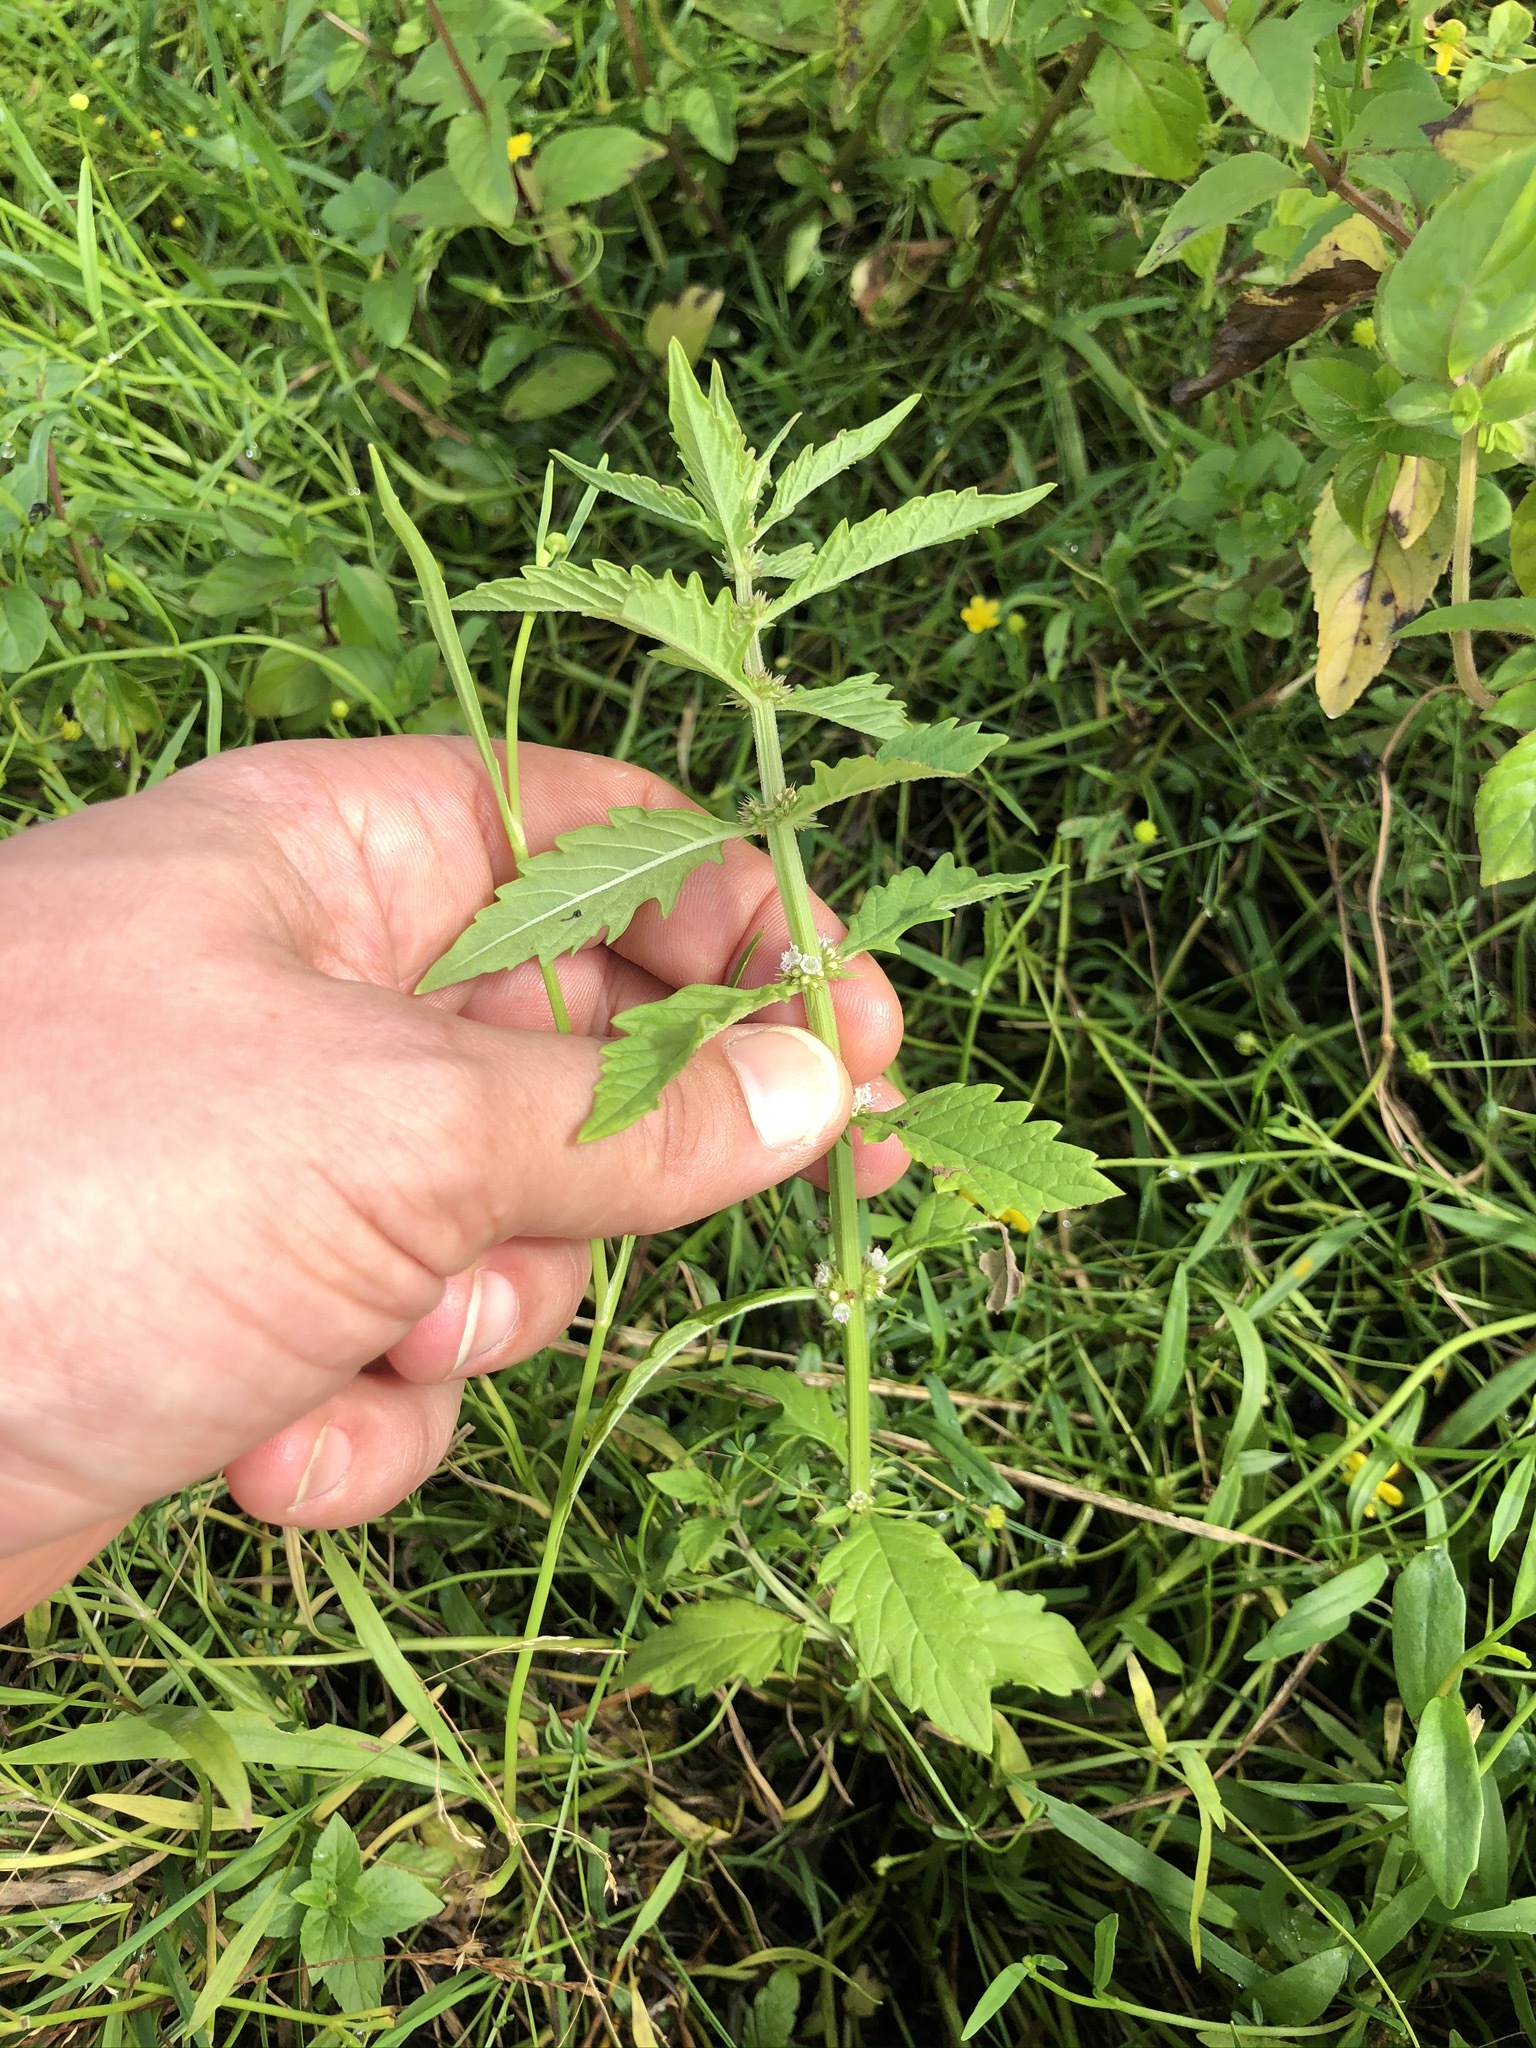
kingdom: Plantae
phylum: Tracheophyta
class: Magnoliopsida
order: Lamiales
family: Lamiaceae
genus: Lycopus
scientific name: Lycopus europaeus
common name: European bugleweed
